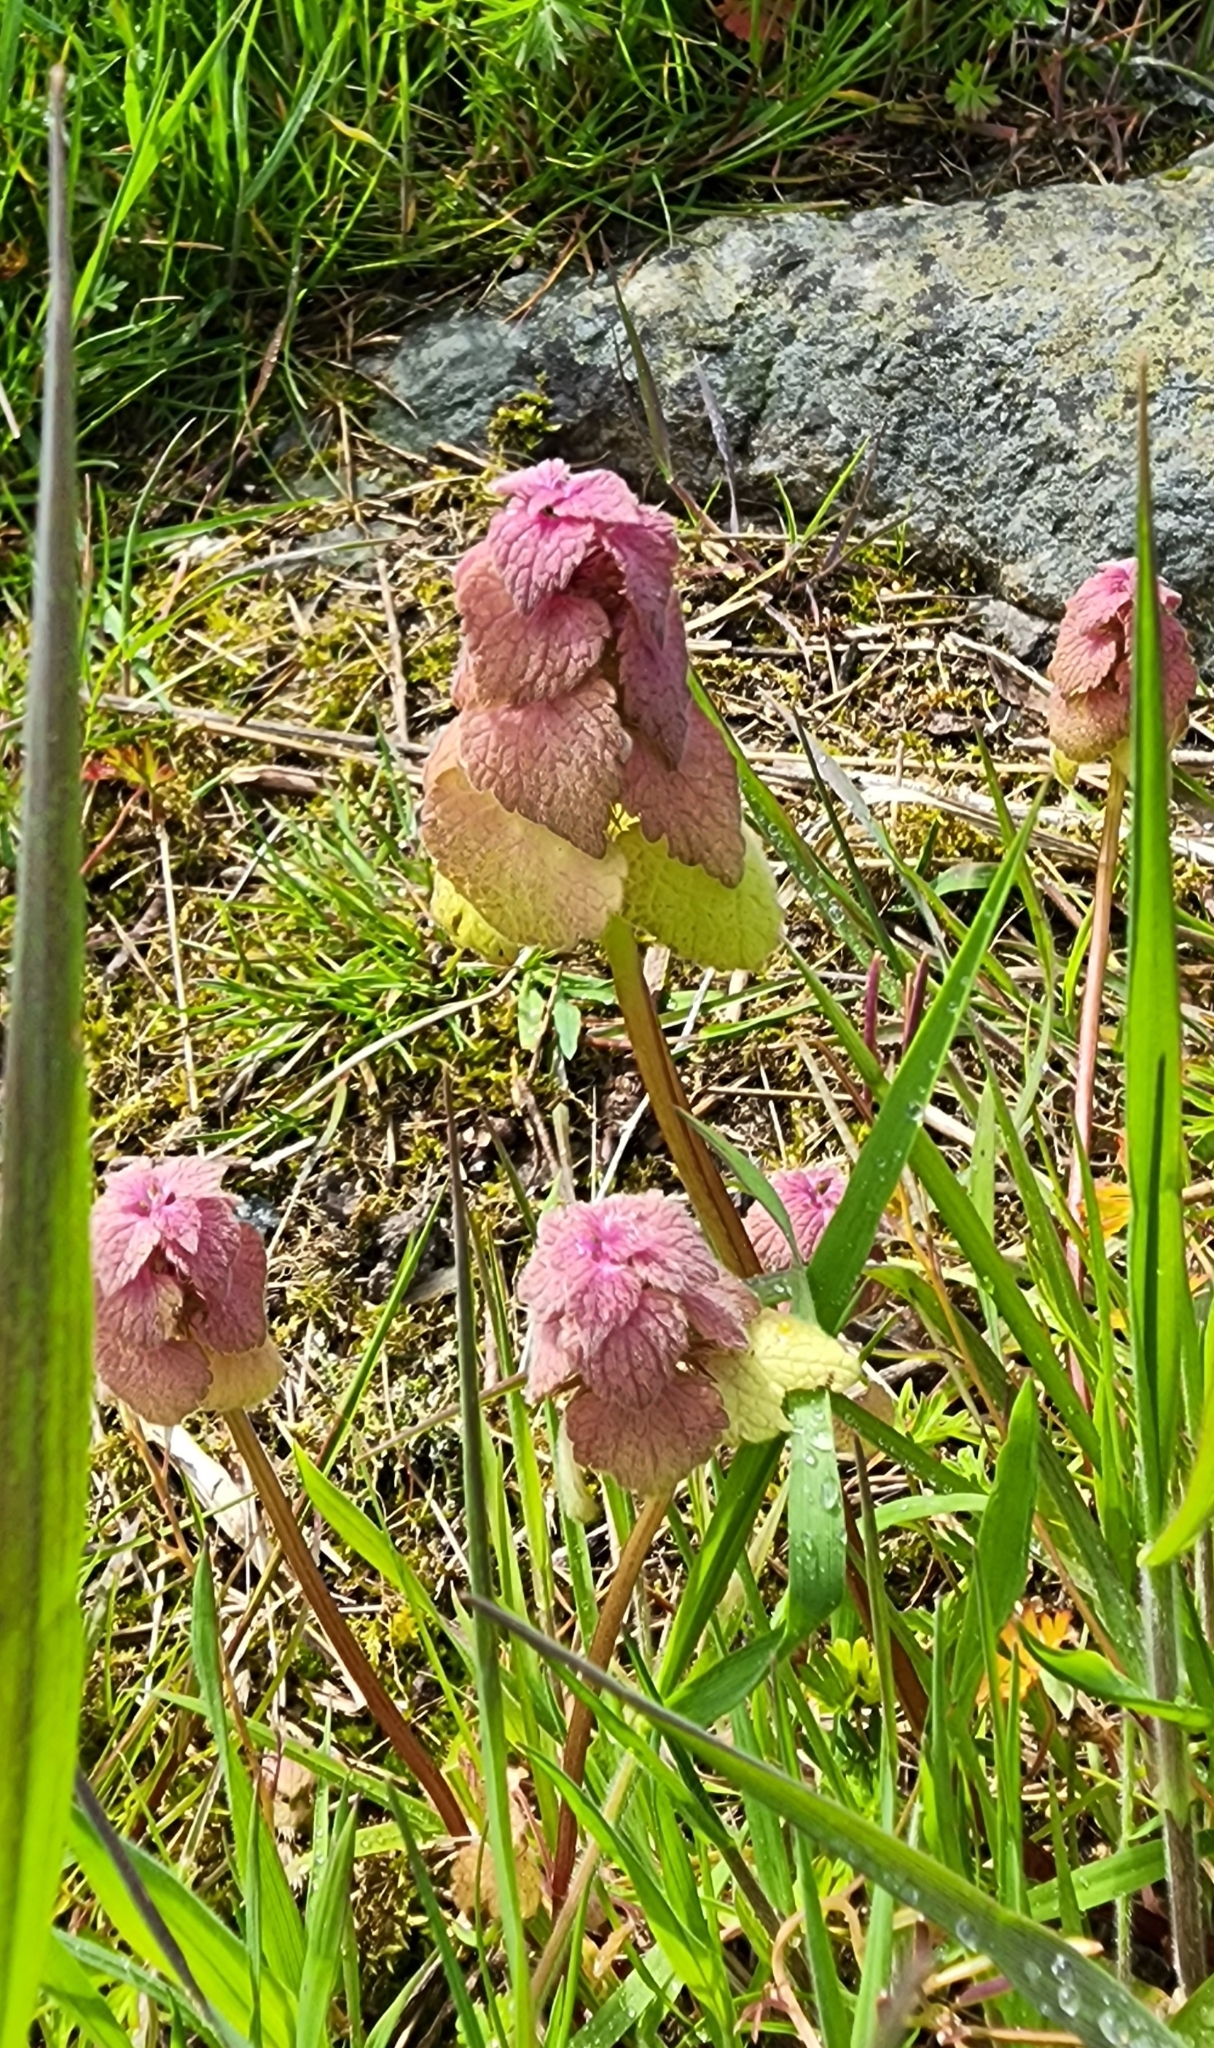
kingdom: Plantae
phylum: Tracheophyta
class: Magnoliopsida
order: Lamiales
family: Lamiaceae
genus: Lamium
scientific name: Lamium purpureum
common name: Red dead-nettle
